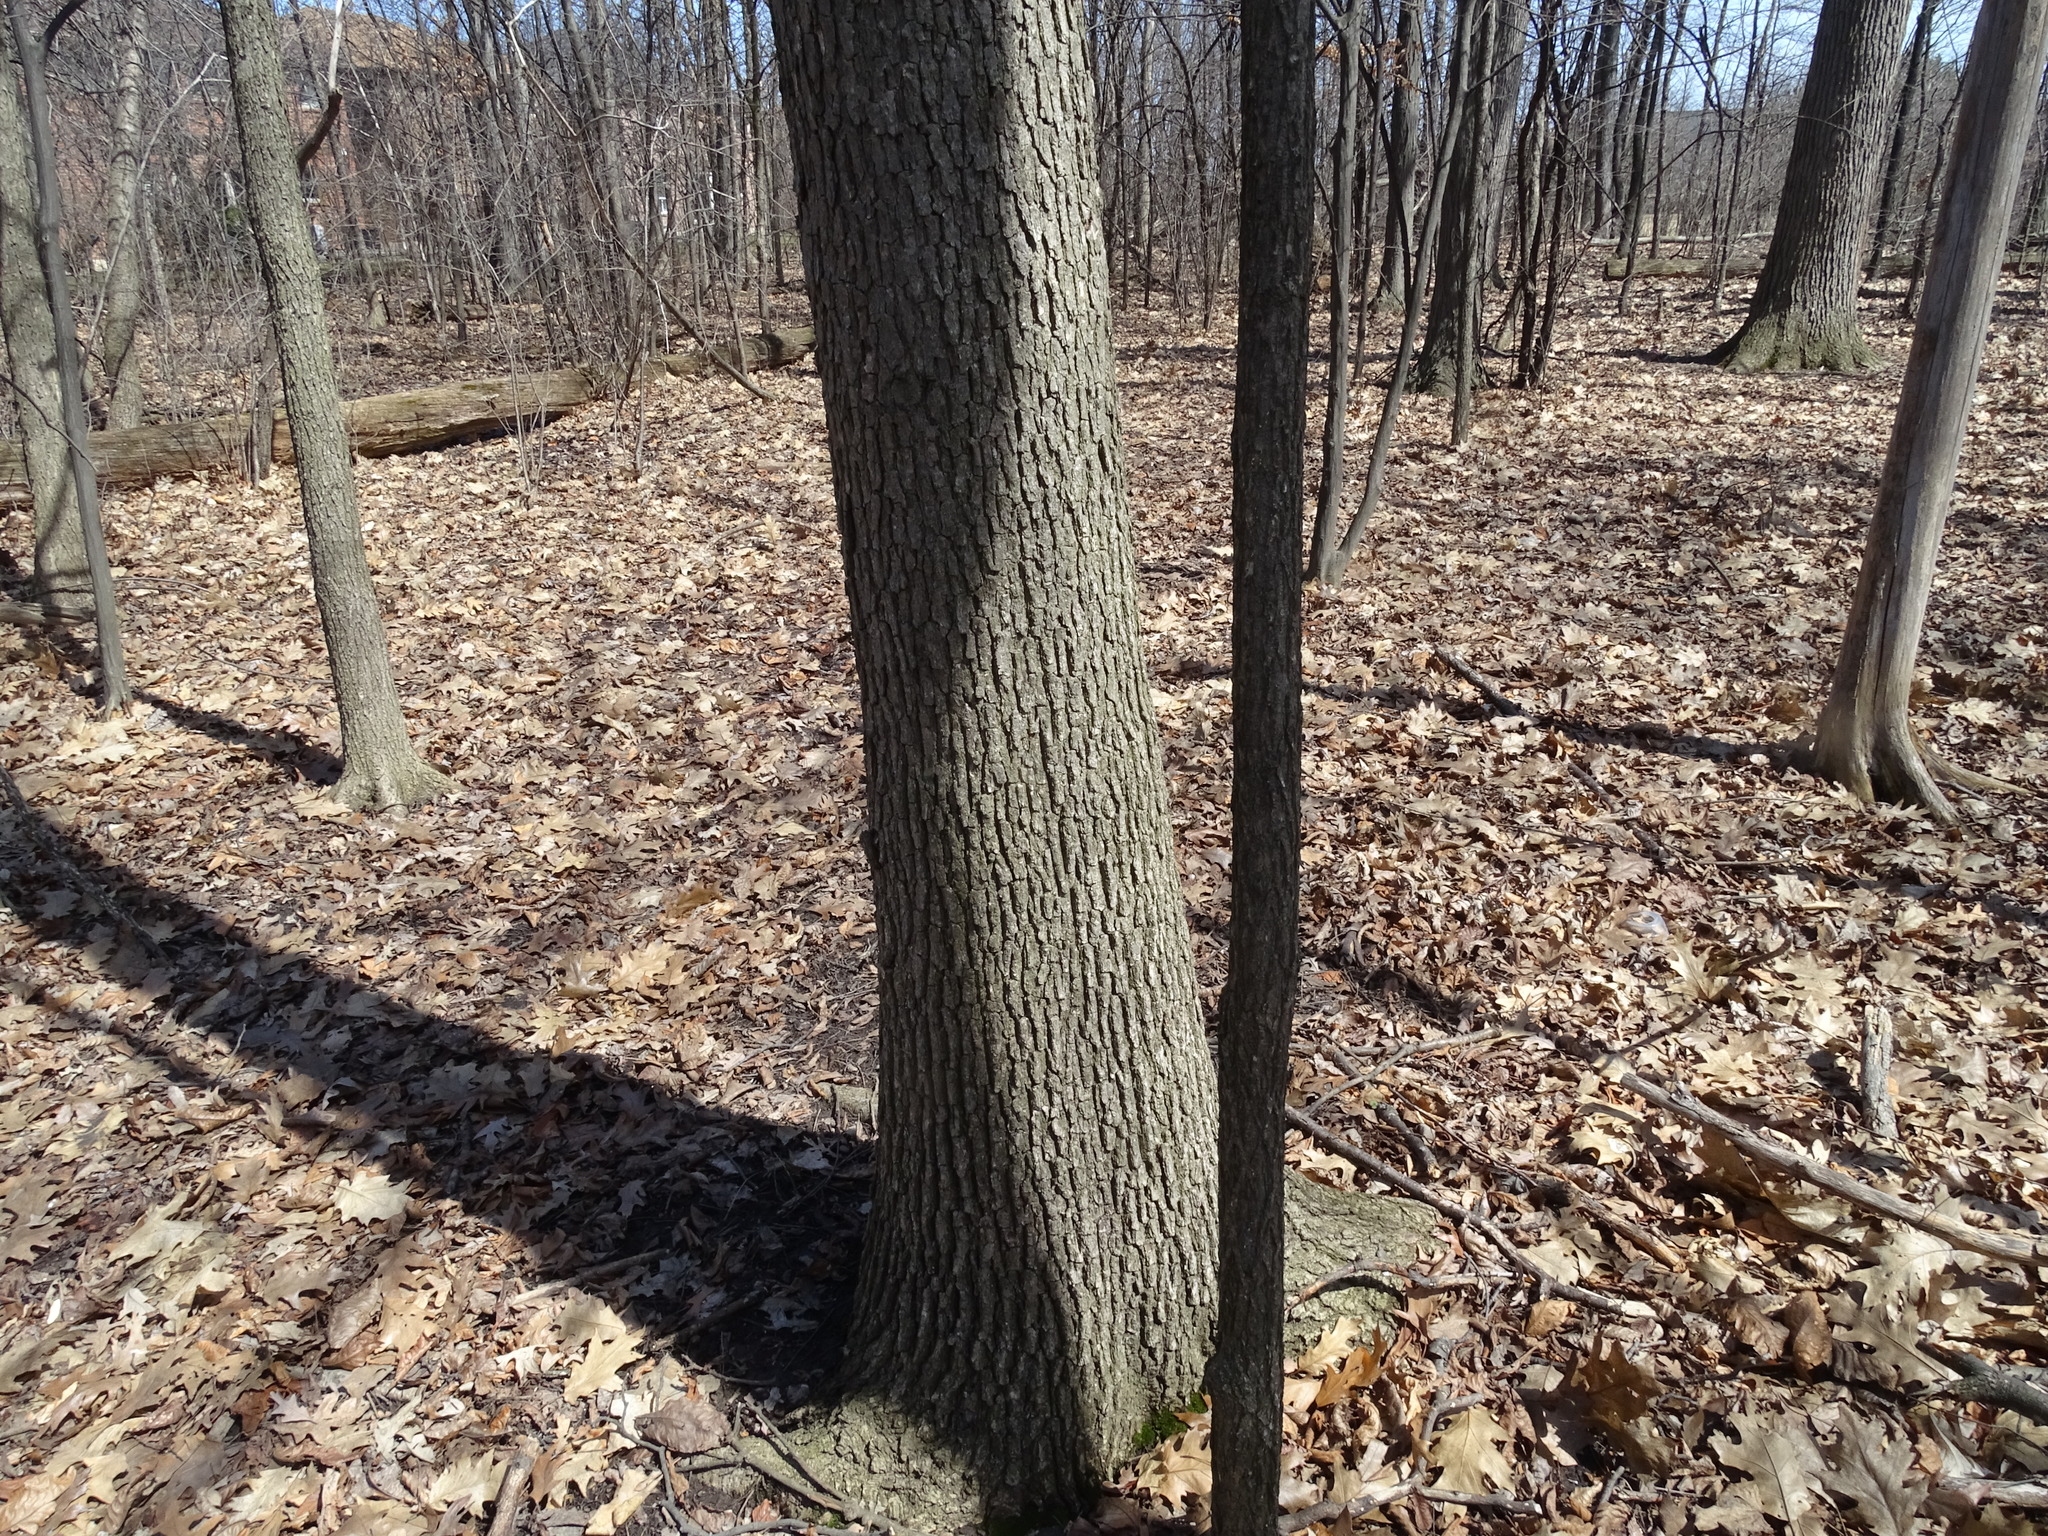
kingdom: Plantae
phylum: Tracheophyta
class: Magnoliopsida
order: Fagales
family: Fagaceae
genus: Quercus
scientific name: Quercus alba
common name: White oak
